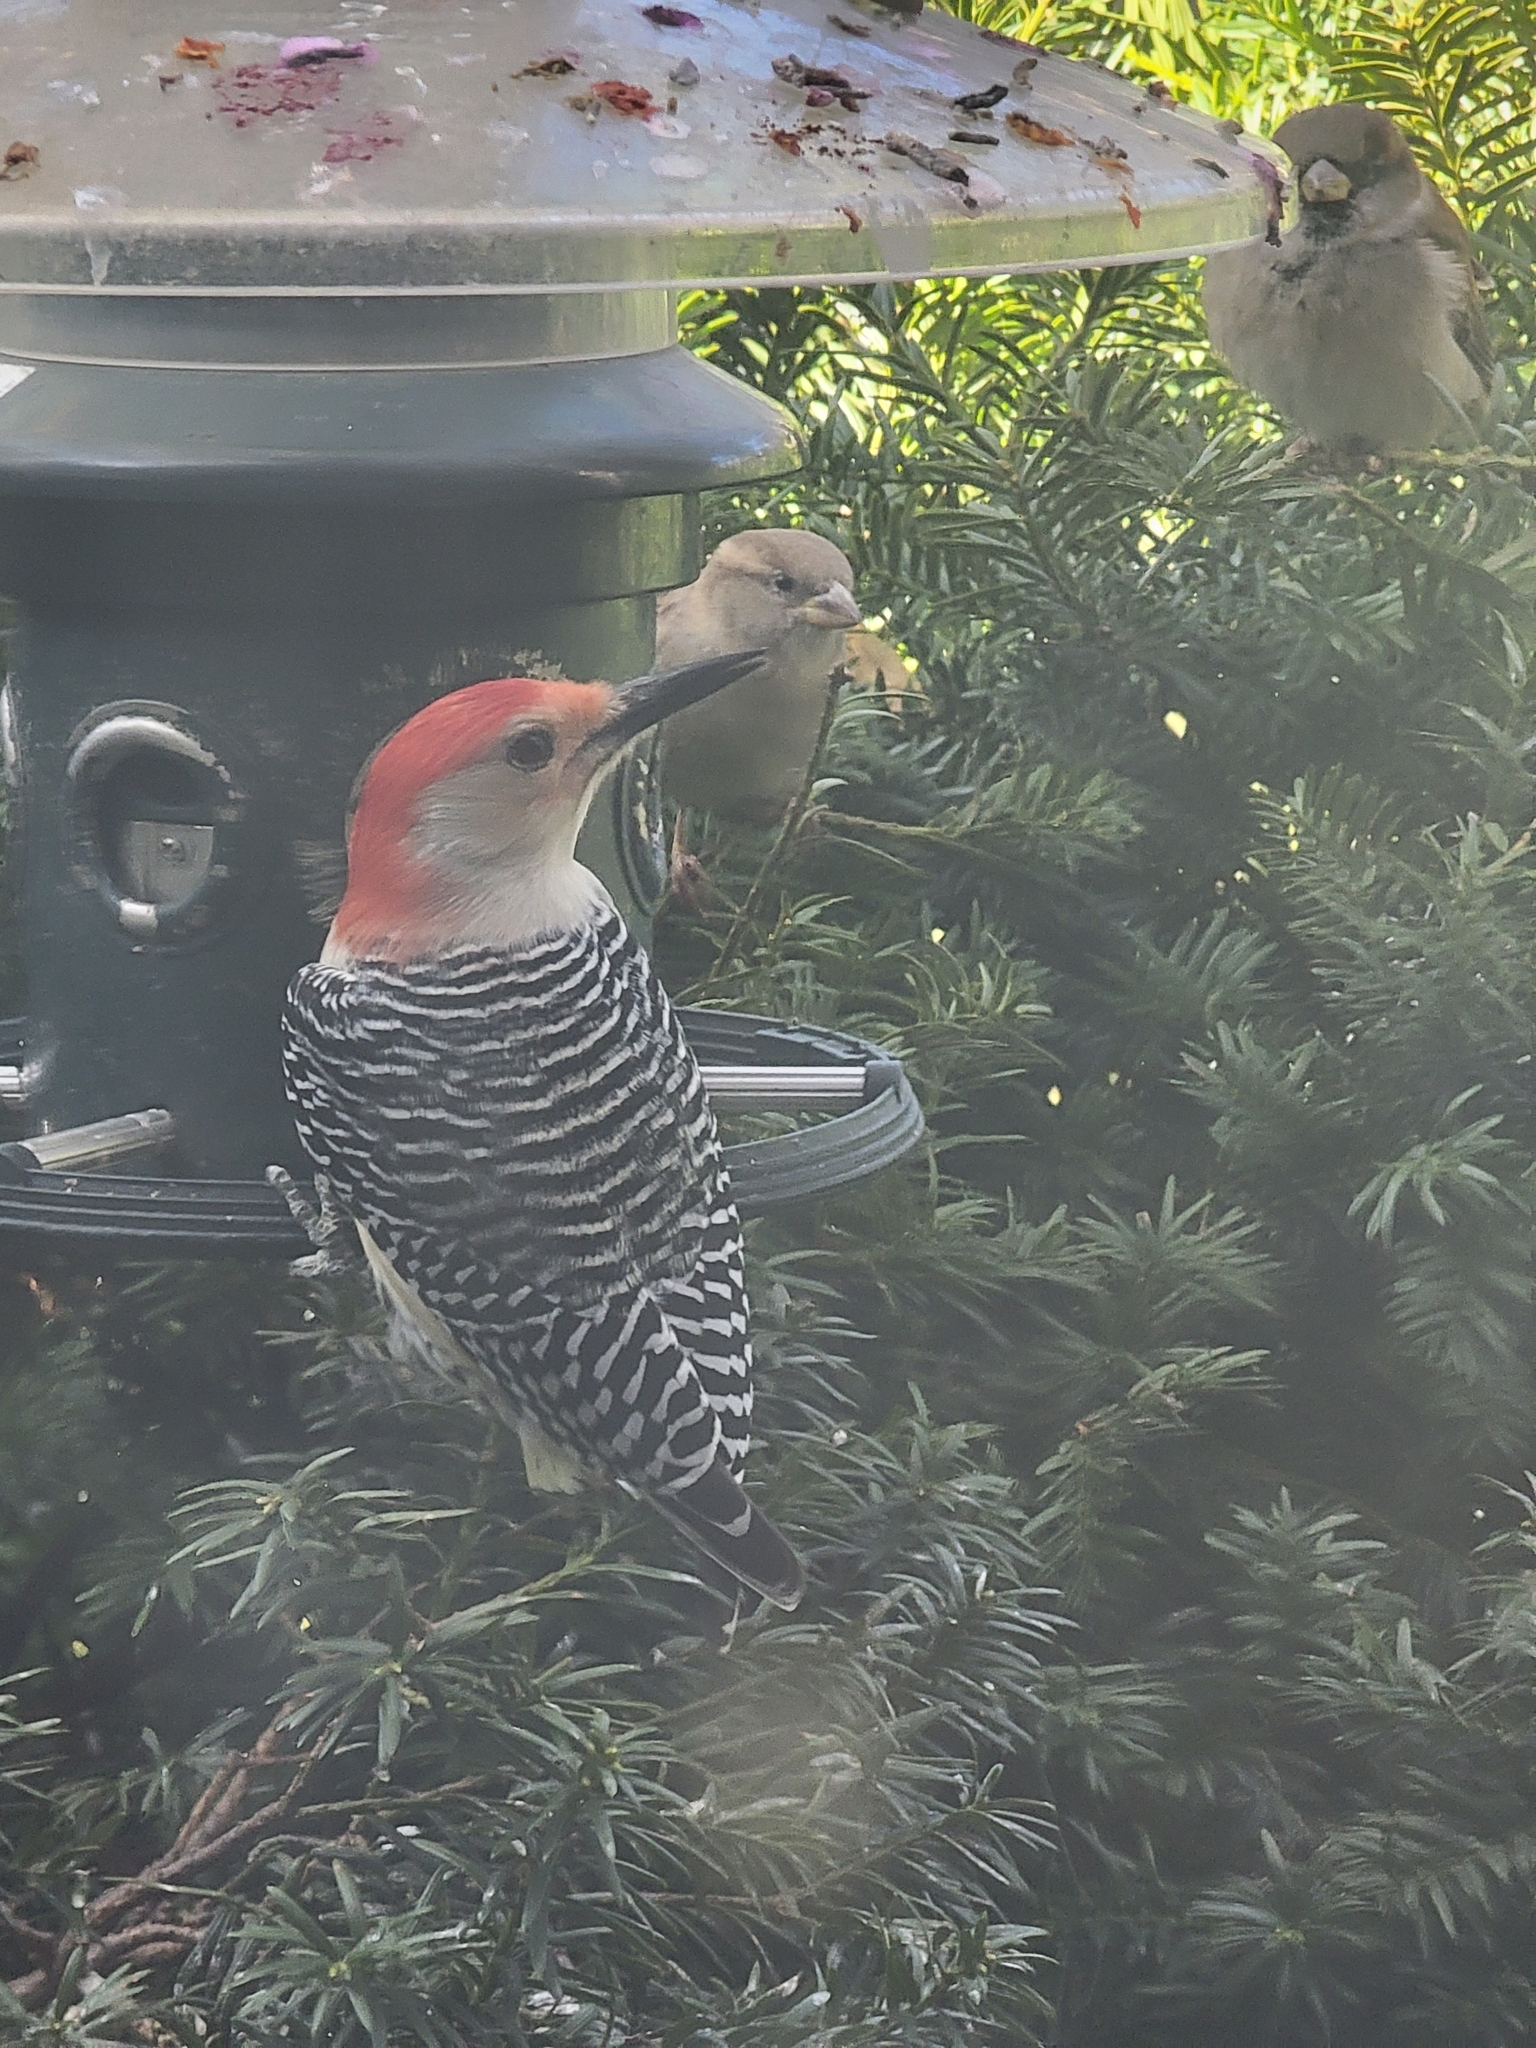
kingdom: Animalia
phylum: Chordata
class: Aves
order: Piciformes
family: Picidae
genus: Melanerpes
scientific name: Melanerpes carolinus
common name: Red-bellied woodpecker
